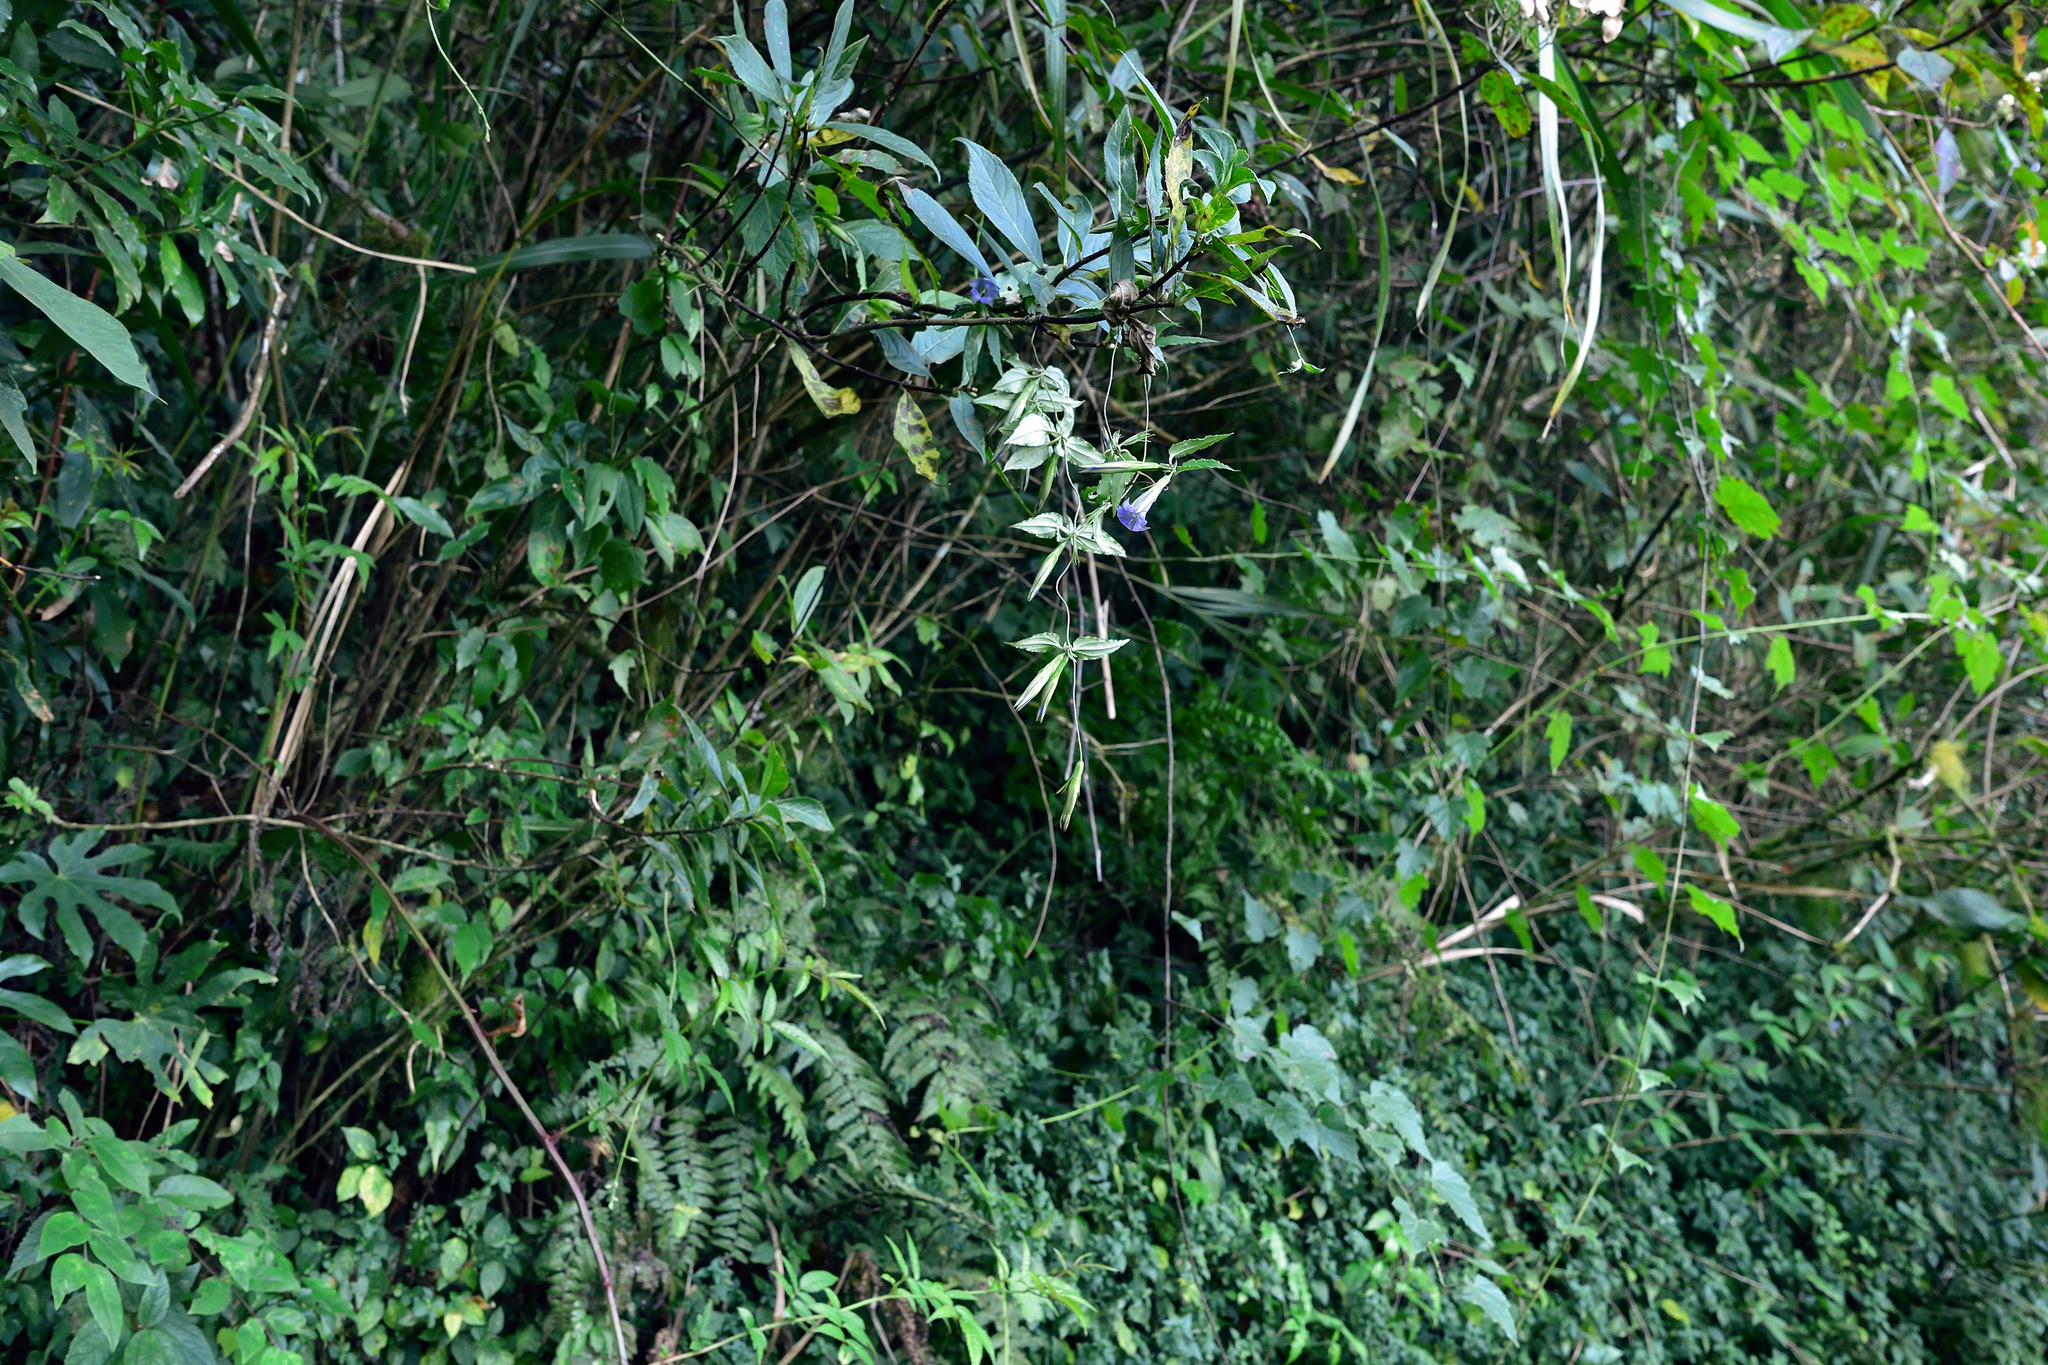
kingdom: Plantae
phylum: Tracheophyta
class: Magnoliopsida
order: Gentianales
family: Gentianaceae
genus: Tripterospermum
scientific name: Tripterospermum lanceolatum
